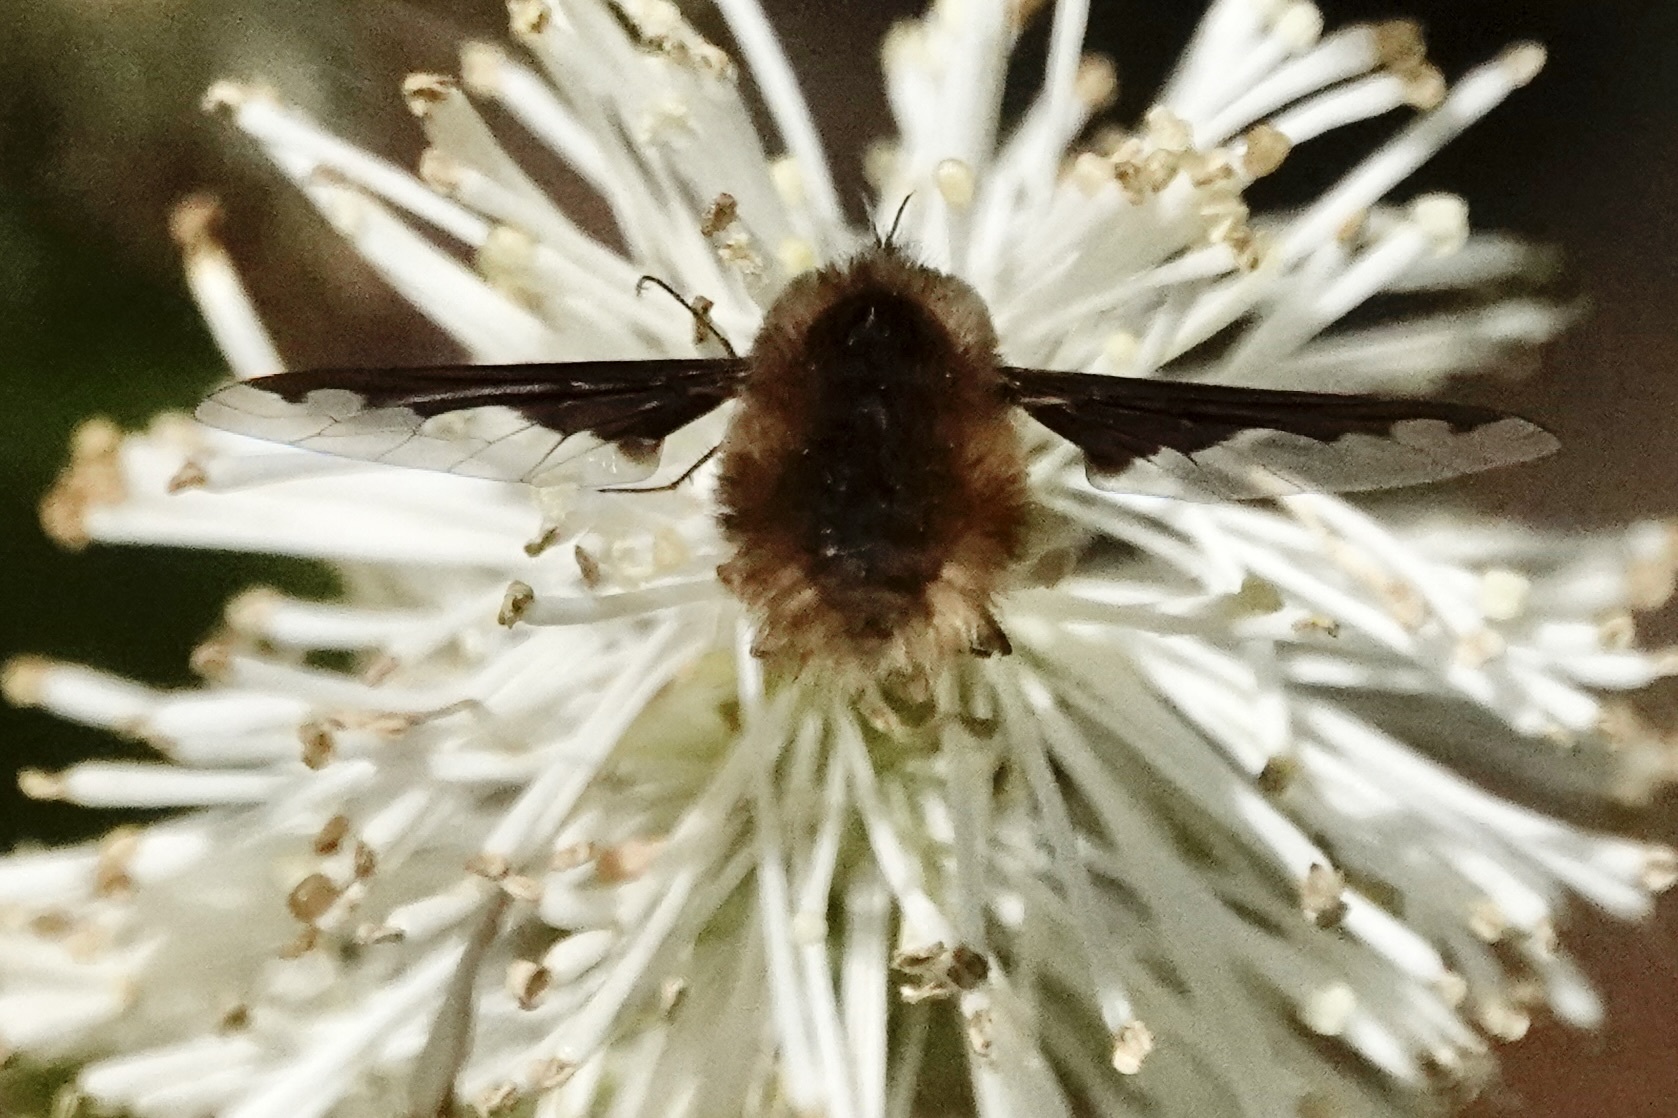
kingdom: Animalia
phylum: Arthropoda
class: Insecta
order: Diptera
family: Bombyliidae
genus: Bombylius
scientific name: Bombylius major
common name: Bee fly
